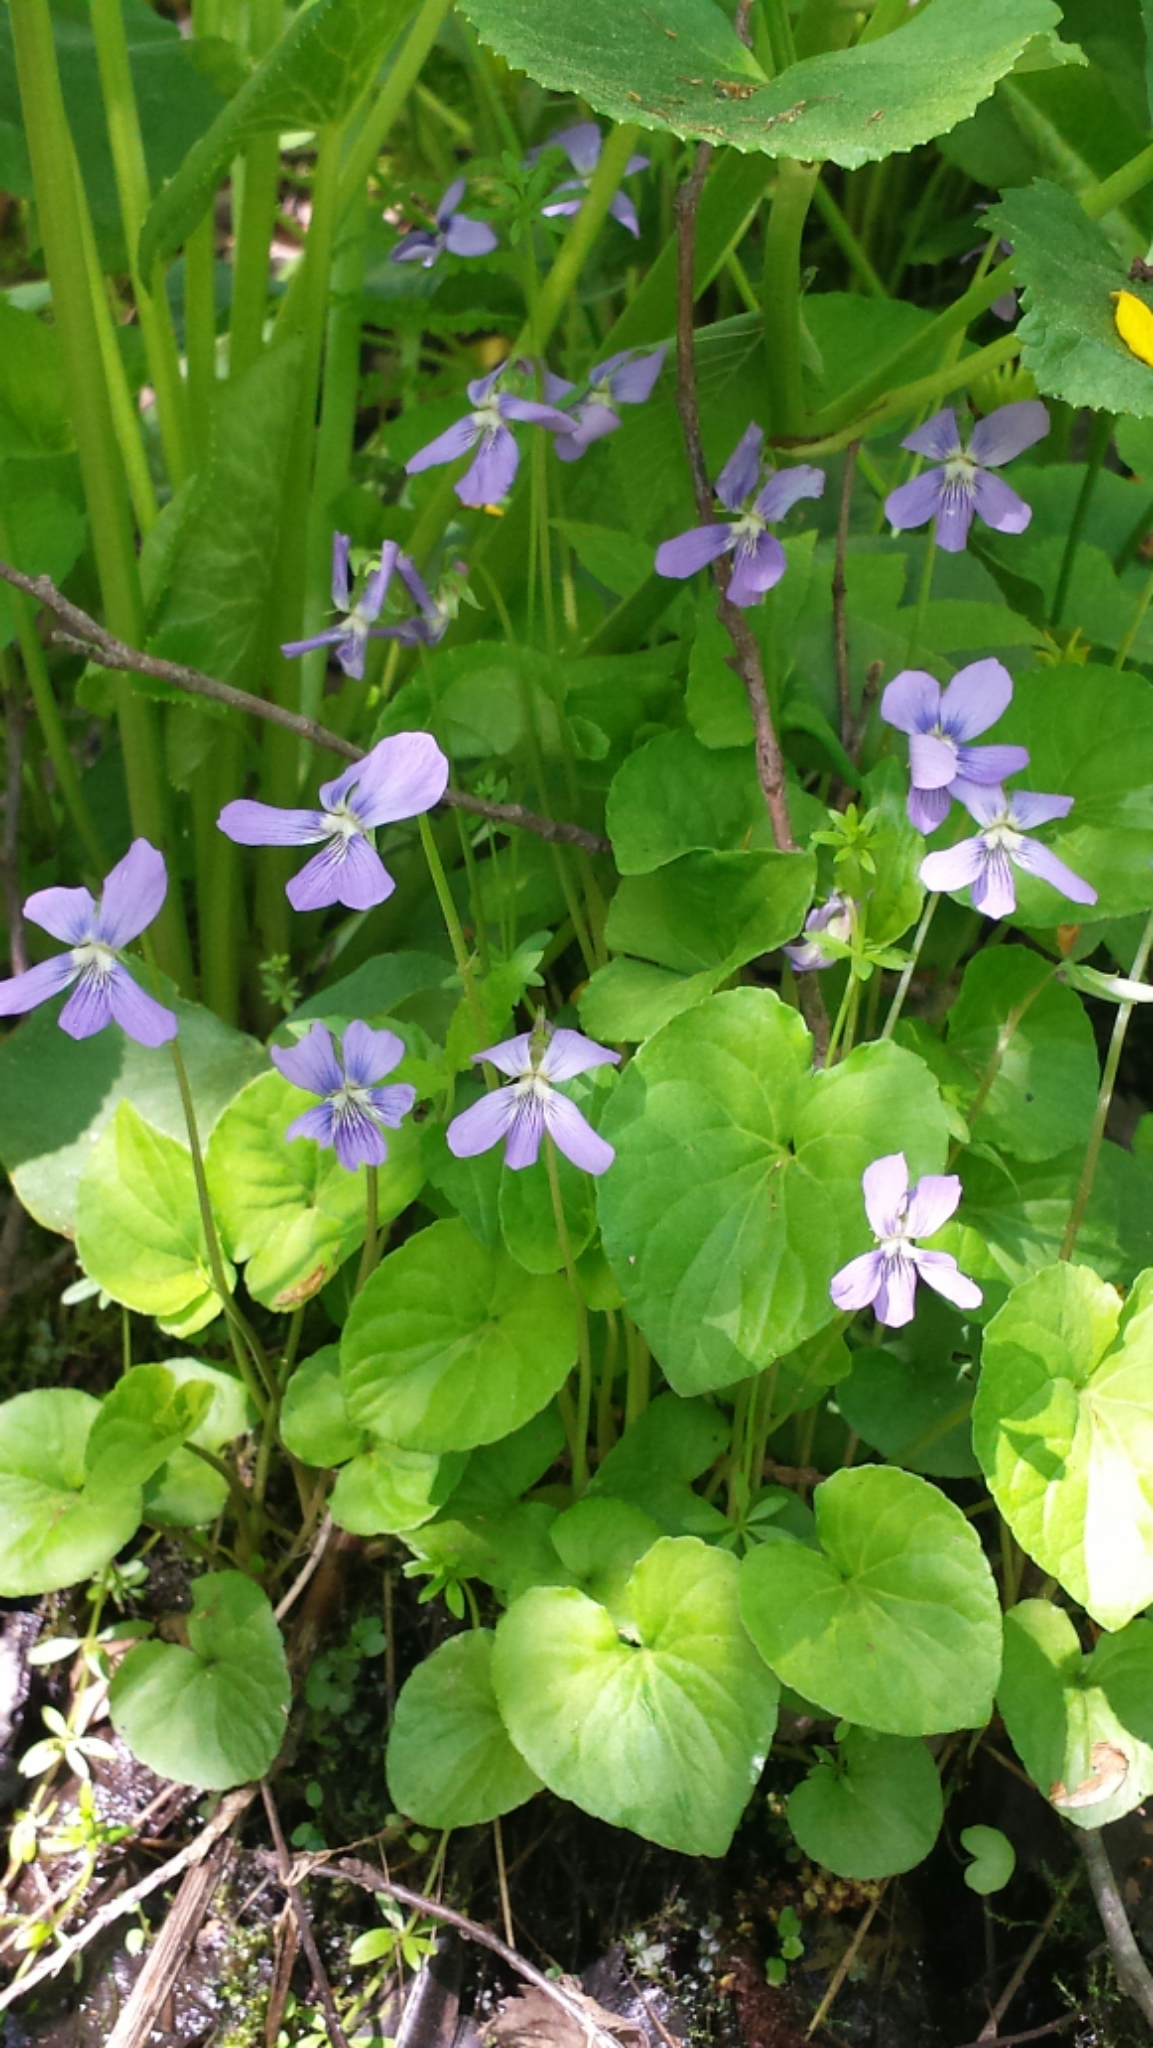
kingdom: Plantae
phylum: Tracheophyta
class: Magnoliopsida
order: Malpighiales
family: Violaceae
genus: Viola
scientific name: Viola cucullata
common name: Marsh blue violet
